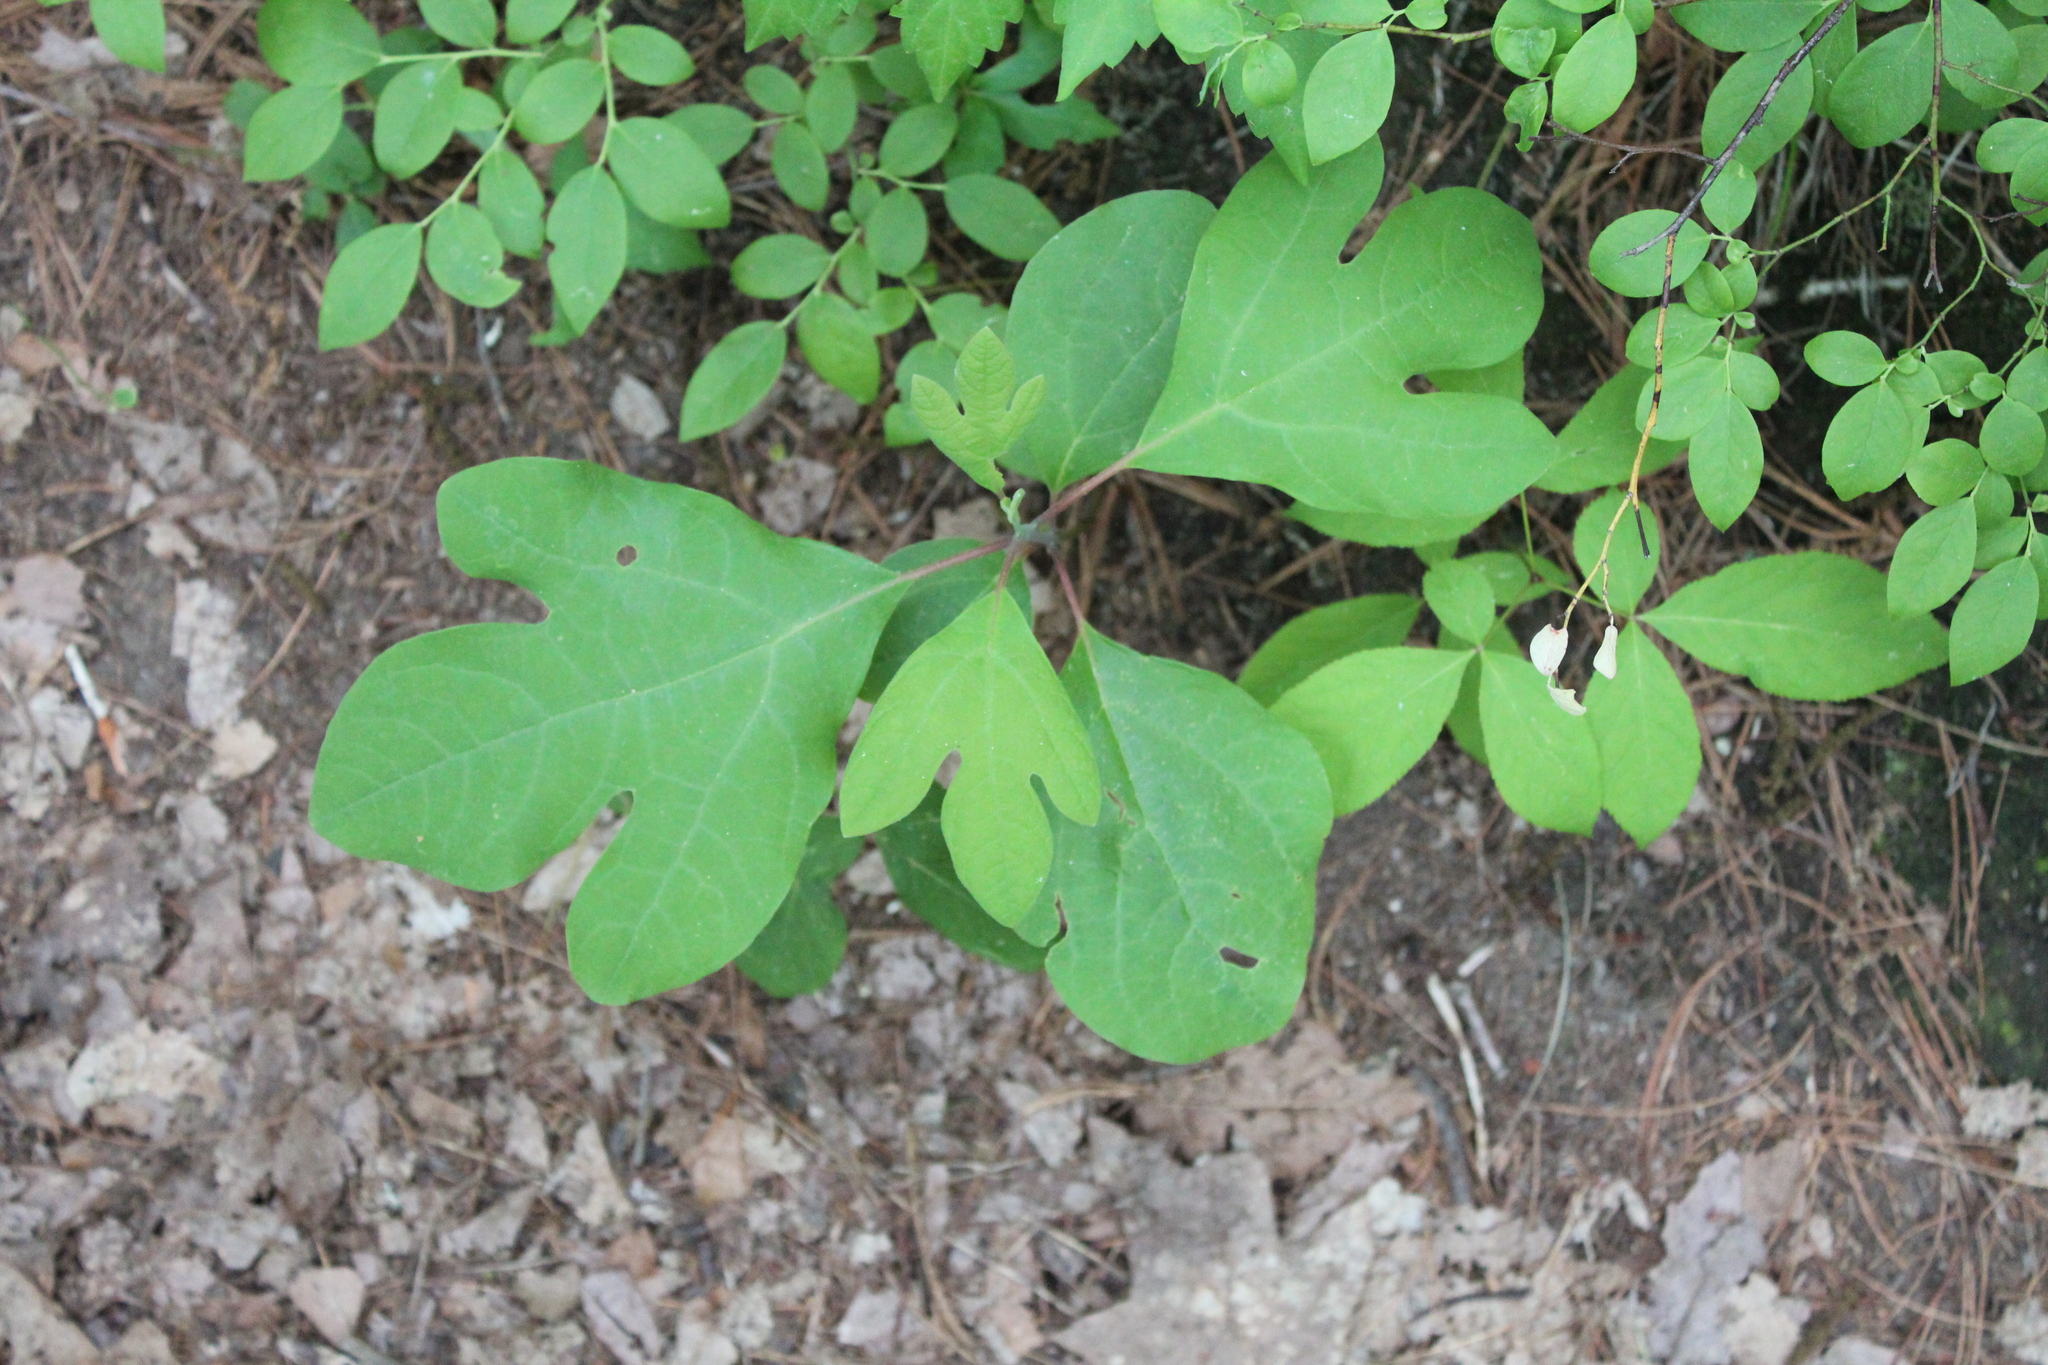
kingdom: Plantae
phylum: Tracheophyta
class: Magnoliopsida
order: Laurales
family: Lauraceae
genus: Sassafras
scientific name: Sassafras albidum
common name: Sassafras
